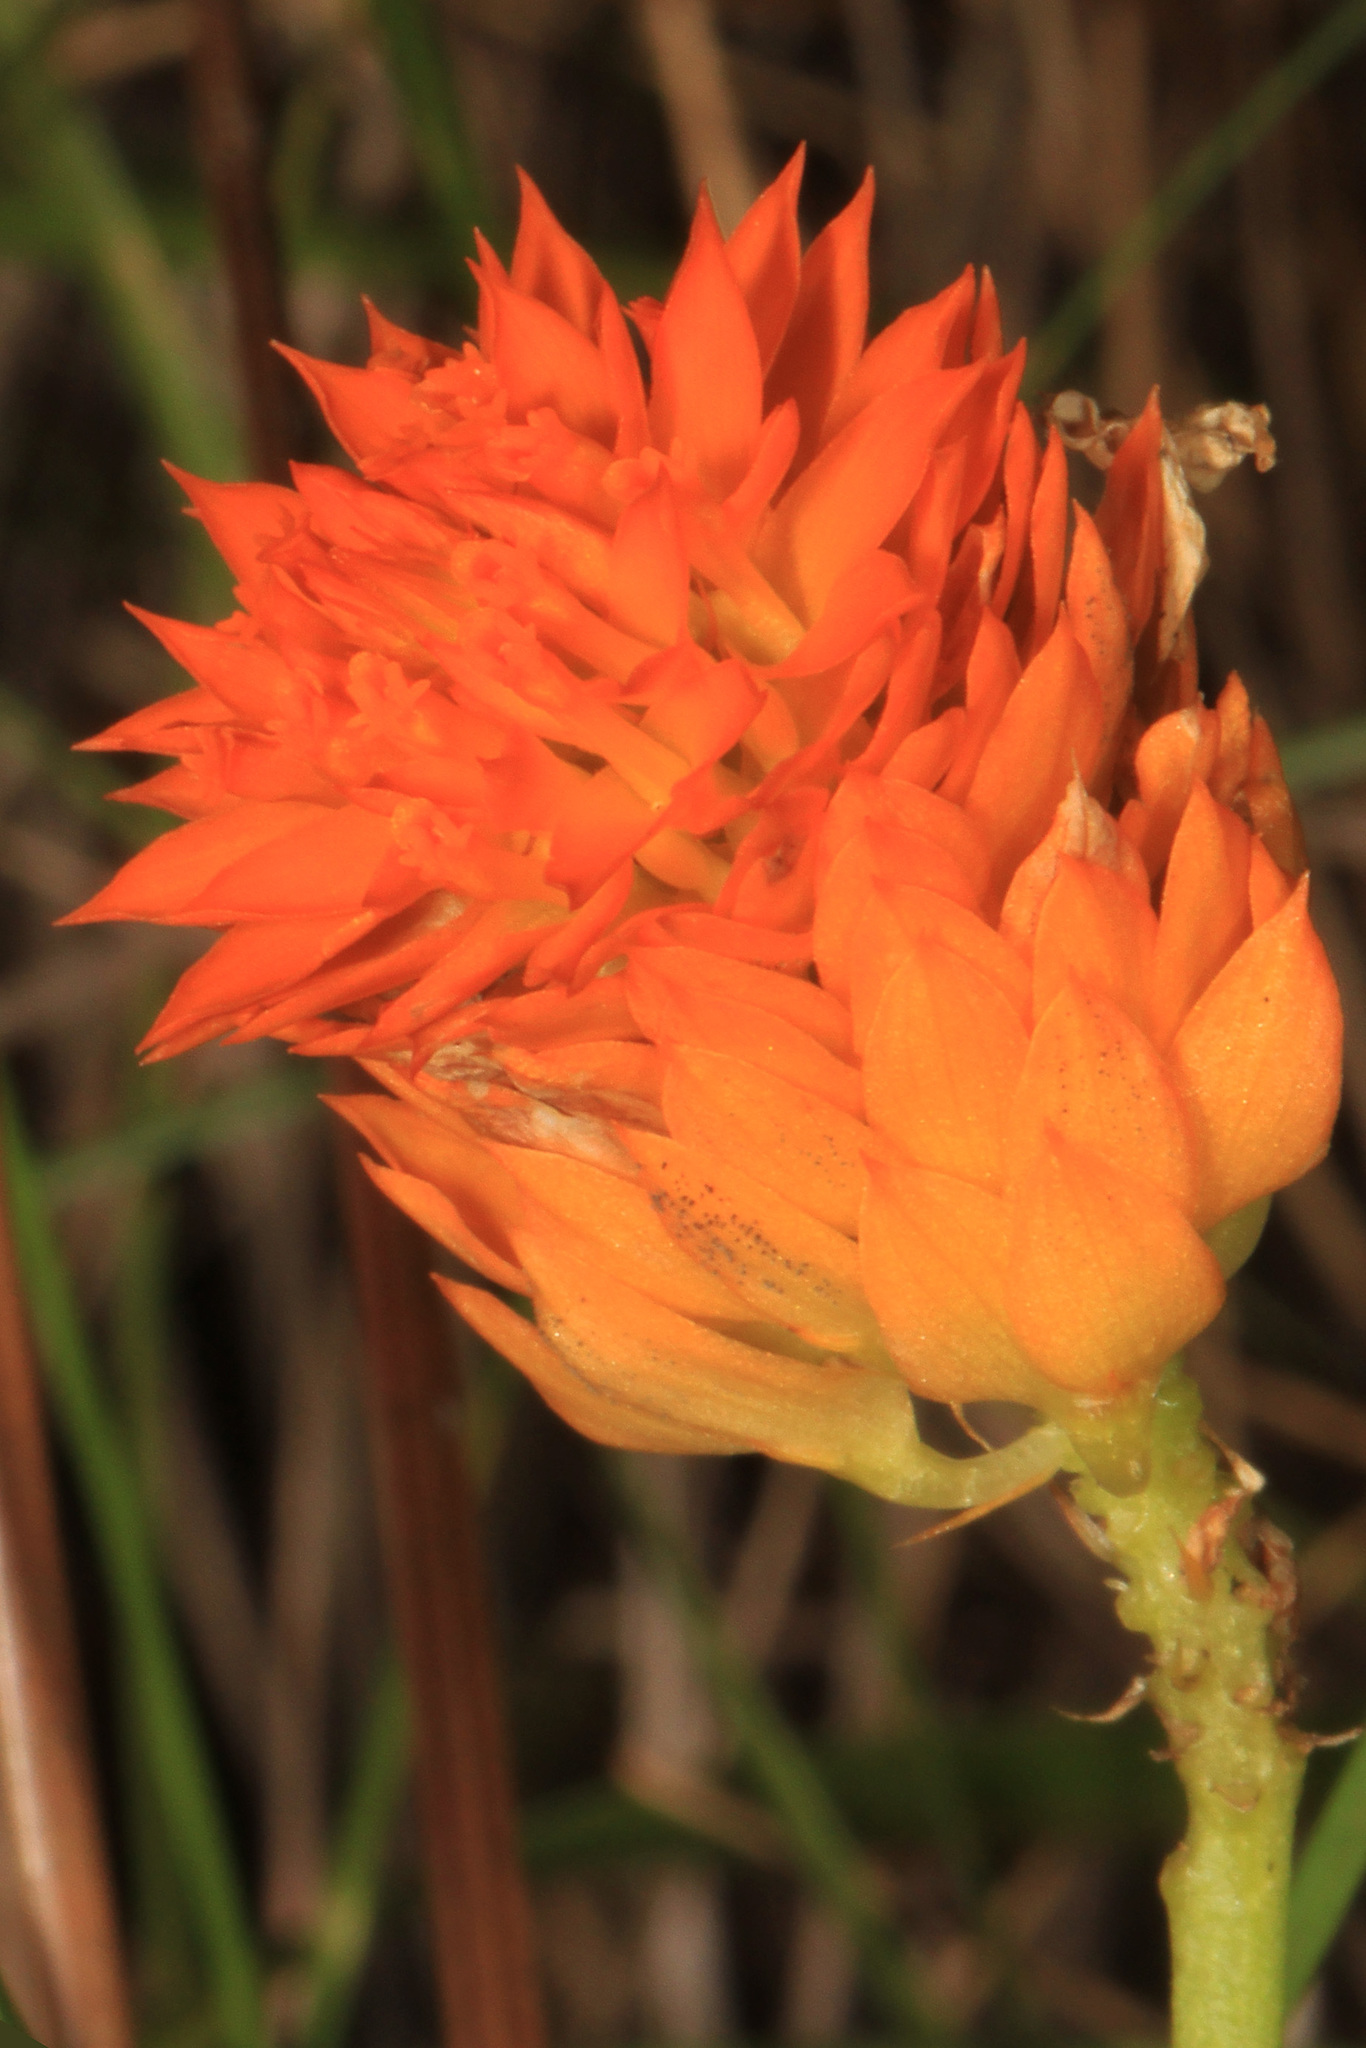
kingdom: Plantae
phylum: Tracheophyta
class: Magnoliopsida
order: Fabales
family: Polygalaceae
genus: Polygala
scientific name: Polygala lutea
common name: Orange milkwort
